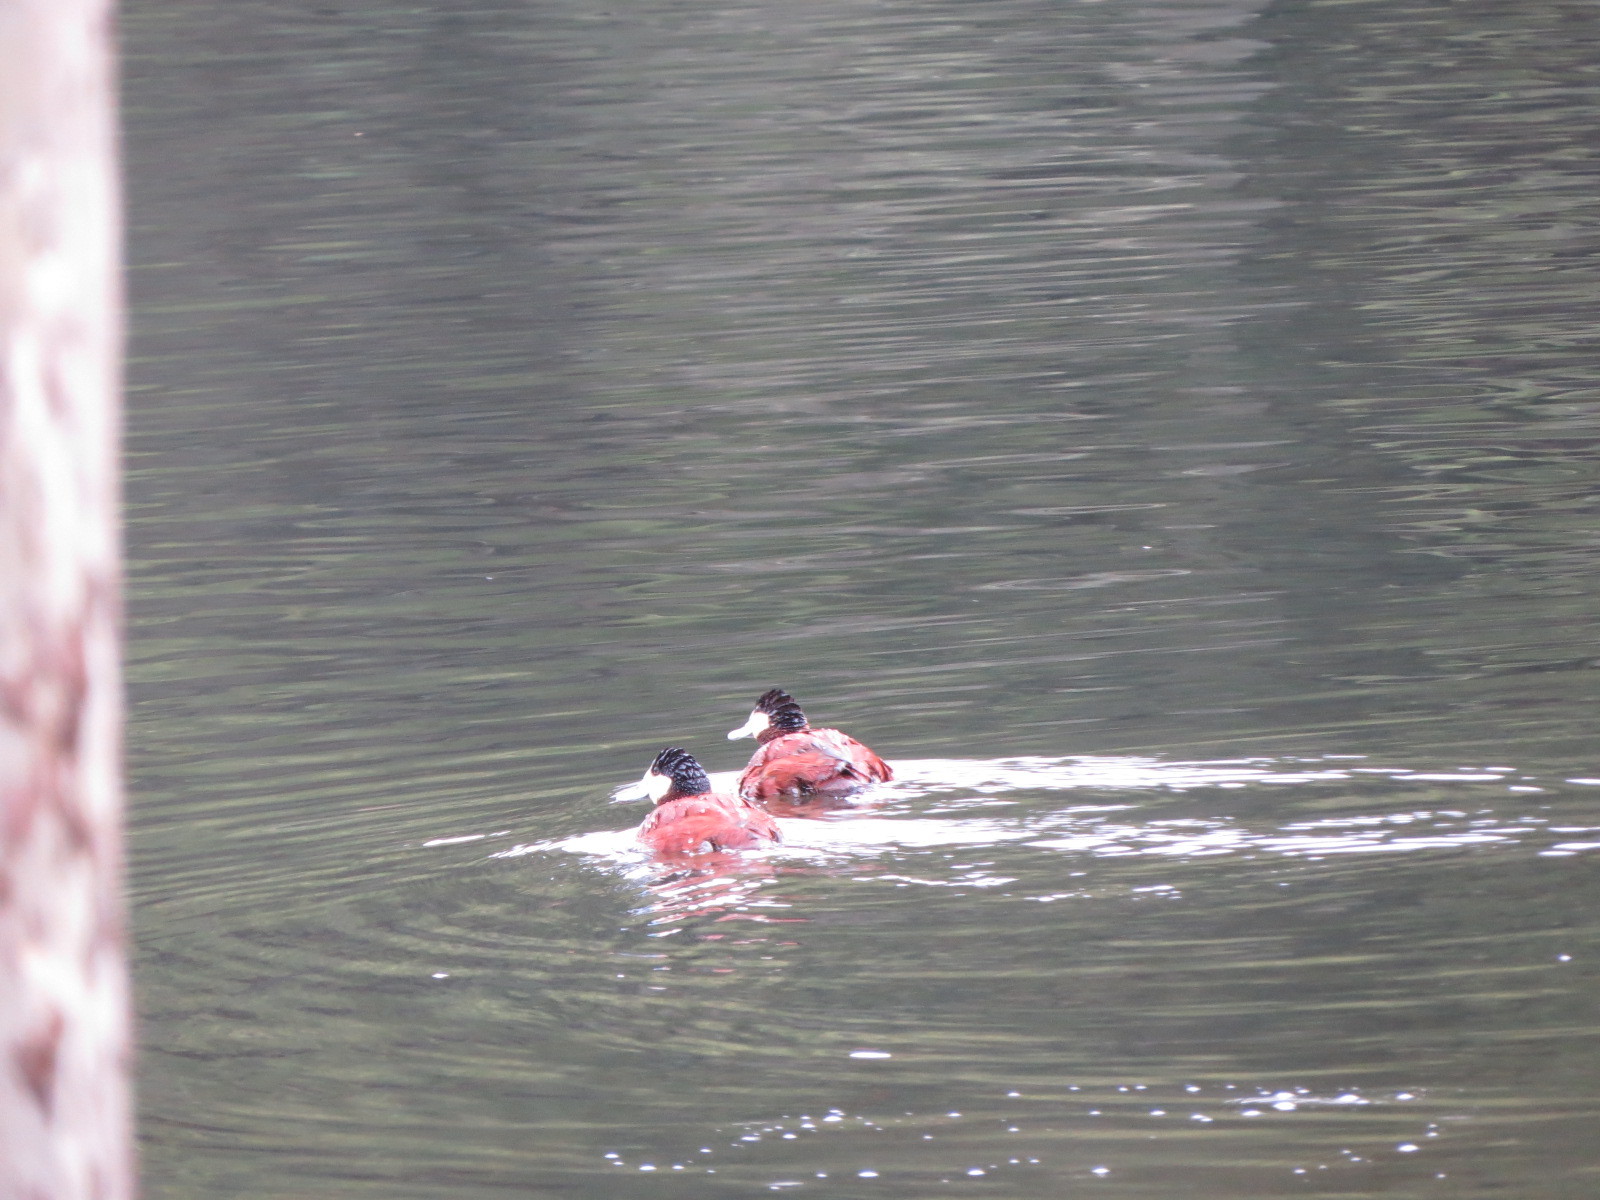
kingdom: Animalia
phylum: Chordata
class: Aves
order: Anseriformes
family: Anatidae
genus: Oxyura
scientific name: Oxyura jamaicensis
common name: Ruddy duck
